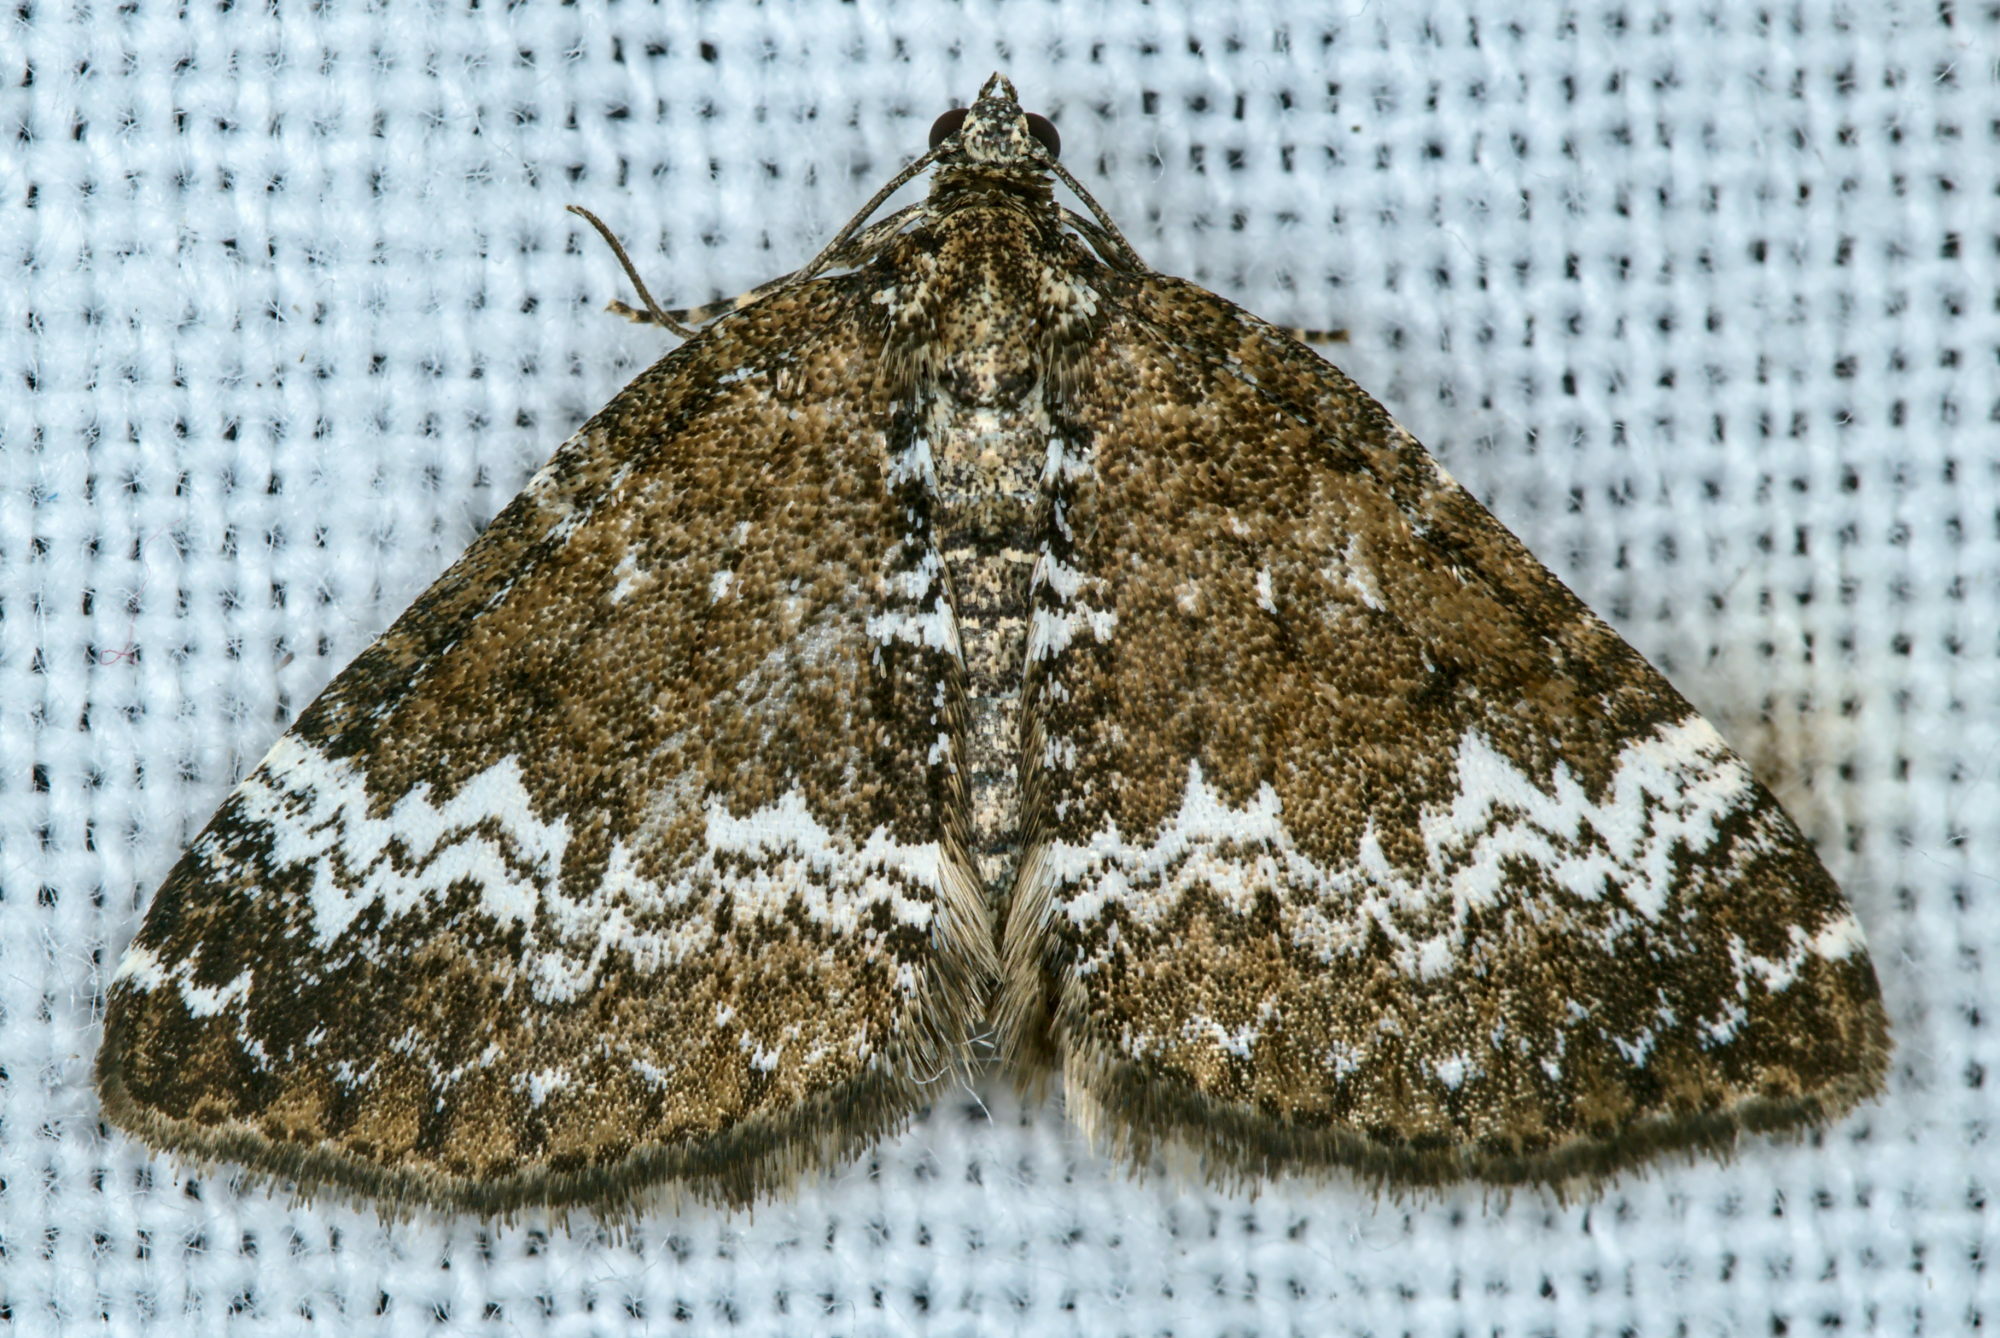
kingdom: Animalia
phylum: Arthropoda
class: Insecta
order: Lepidoptera
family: Geometridae
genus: Perizoma
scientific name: Perizoma alchemillata
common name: Small rivulet
